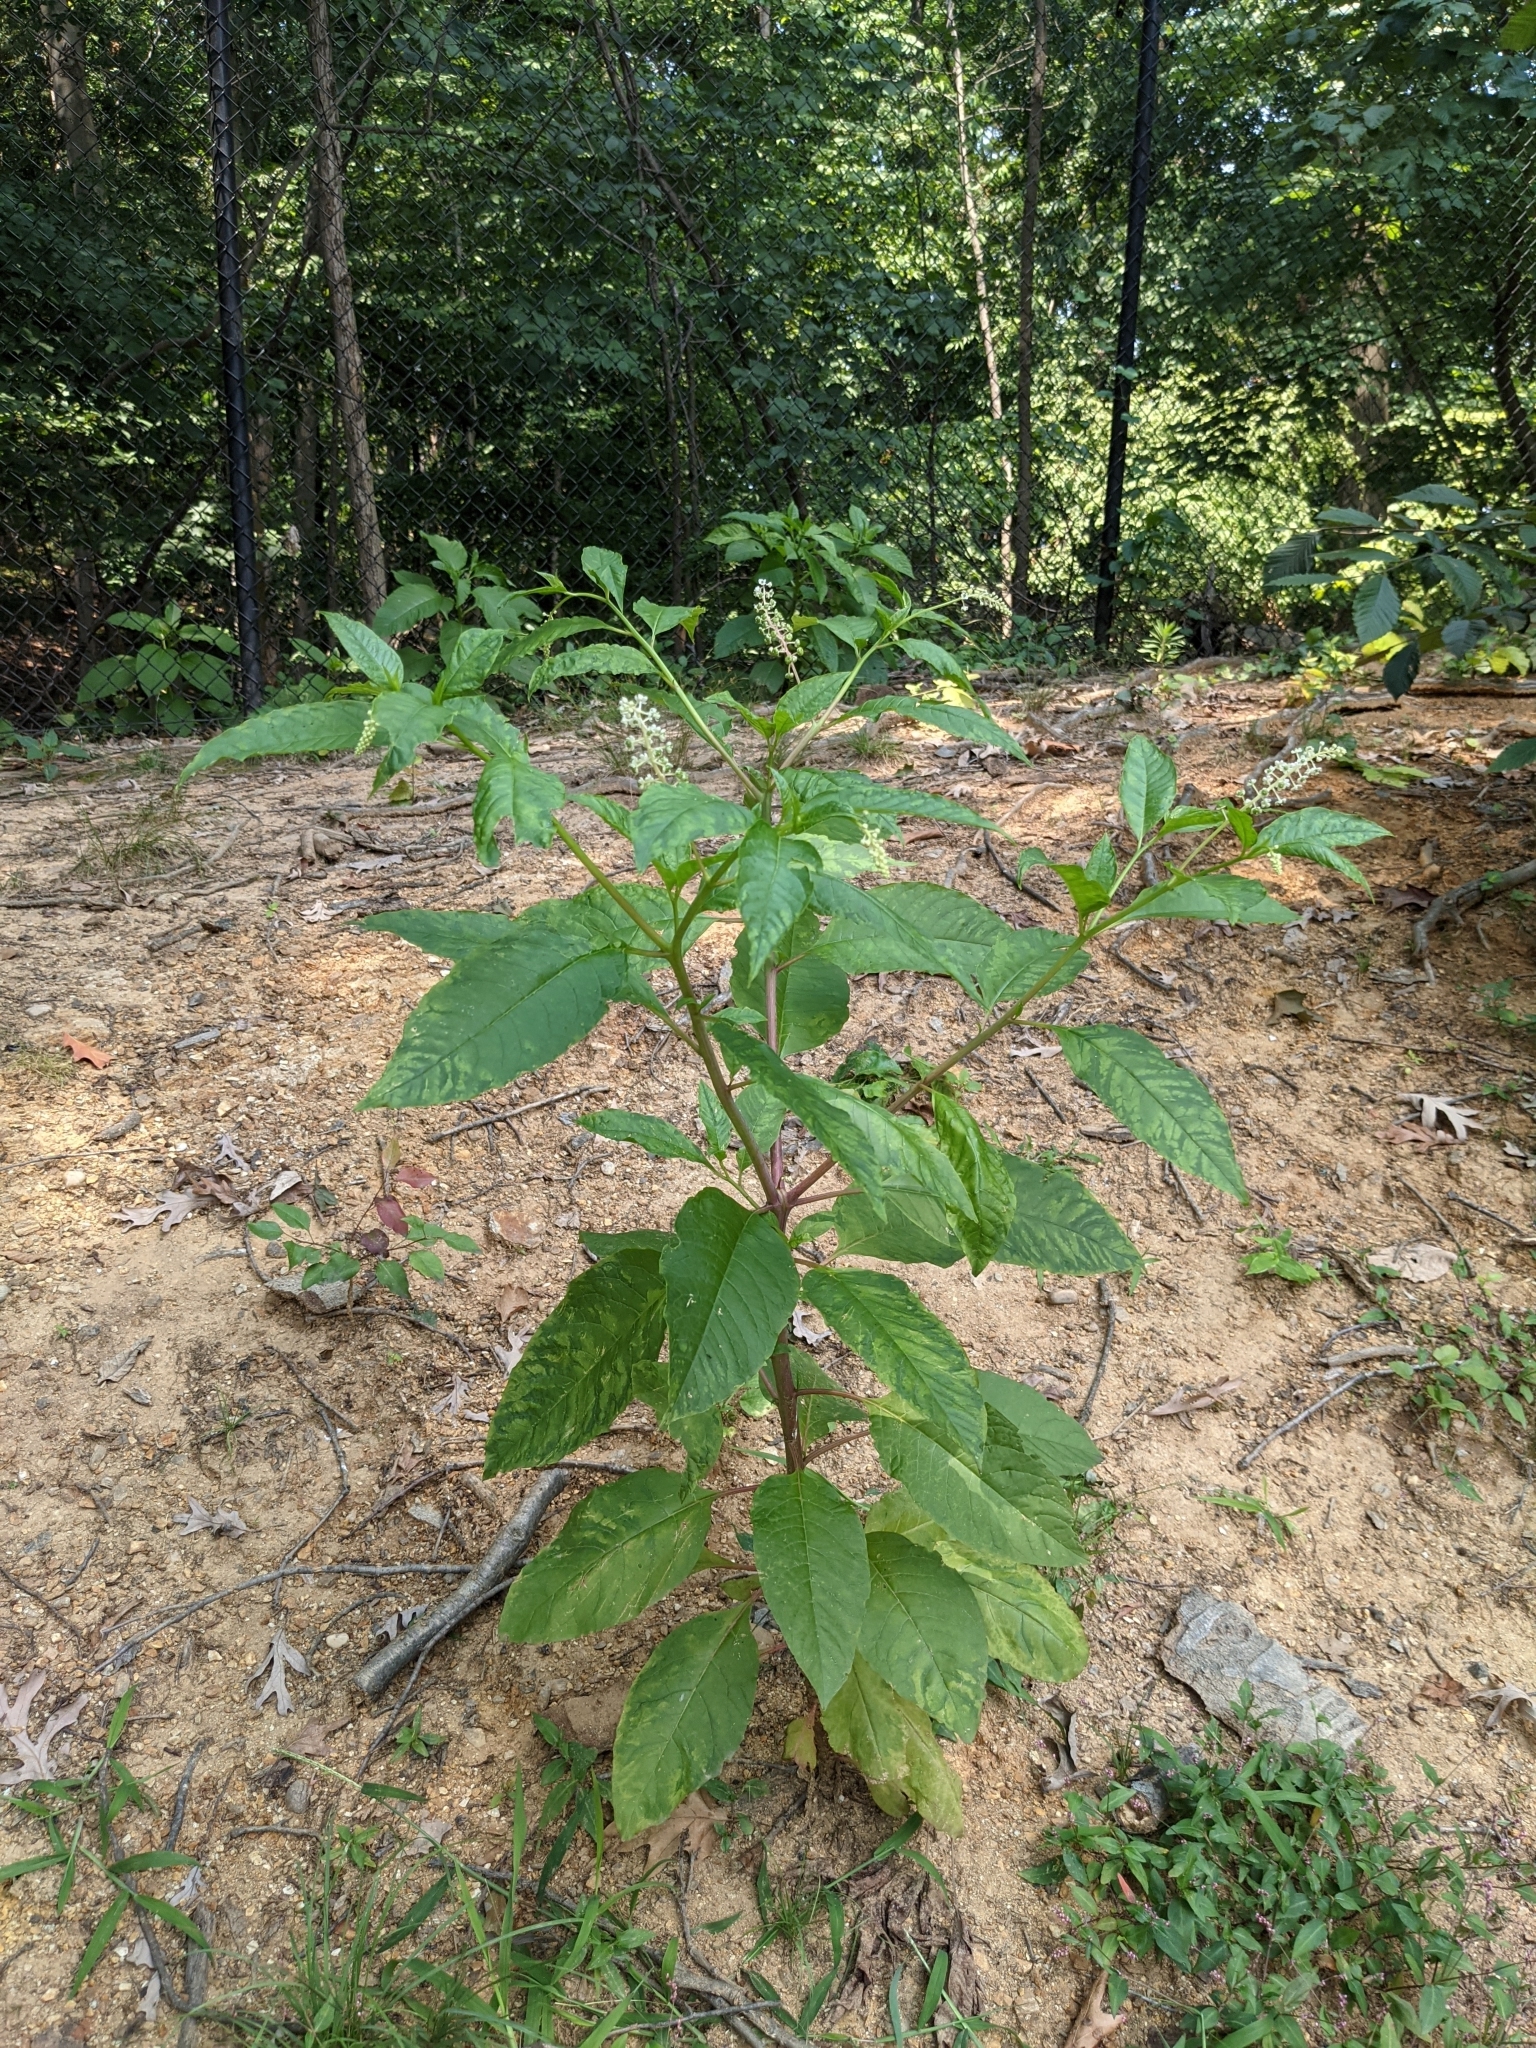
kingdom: Plantae
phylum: Tracheophyta
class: Magnoliopsida
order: Caryophyllales
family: Phytolaccaceae
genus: Phytolacca
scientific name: Phytolacca americana
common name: American pokeweed
